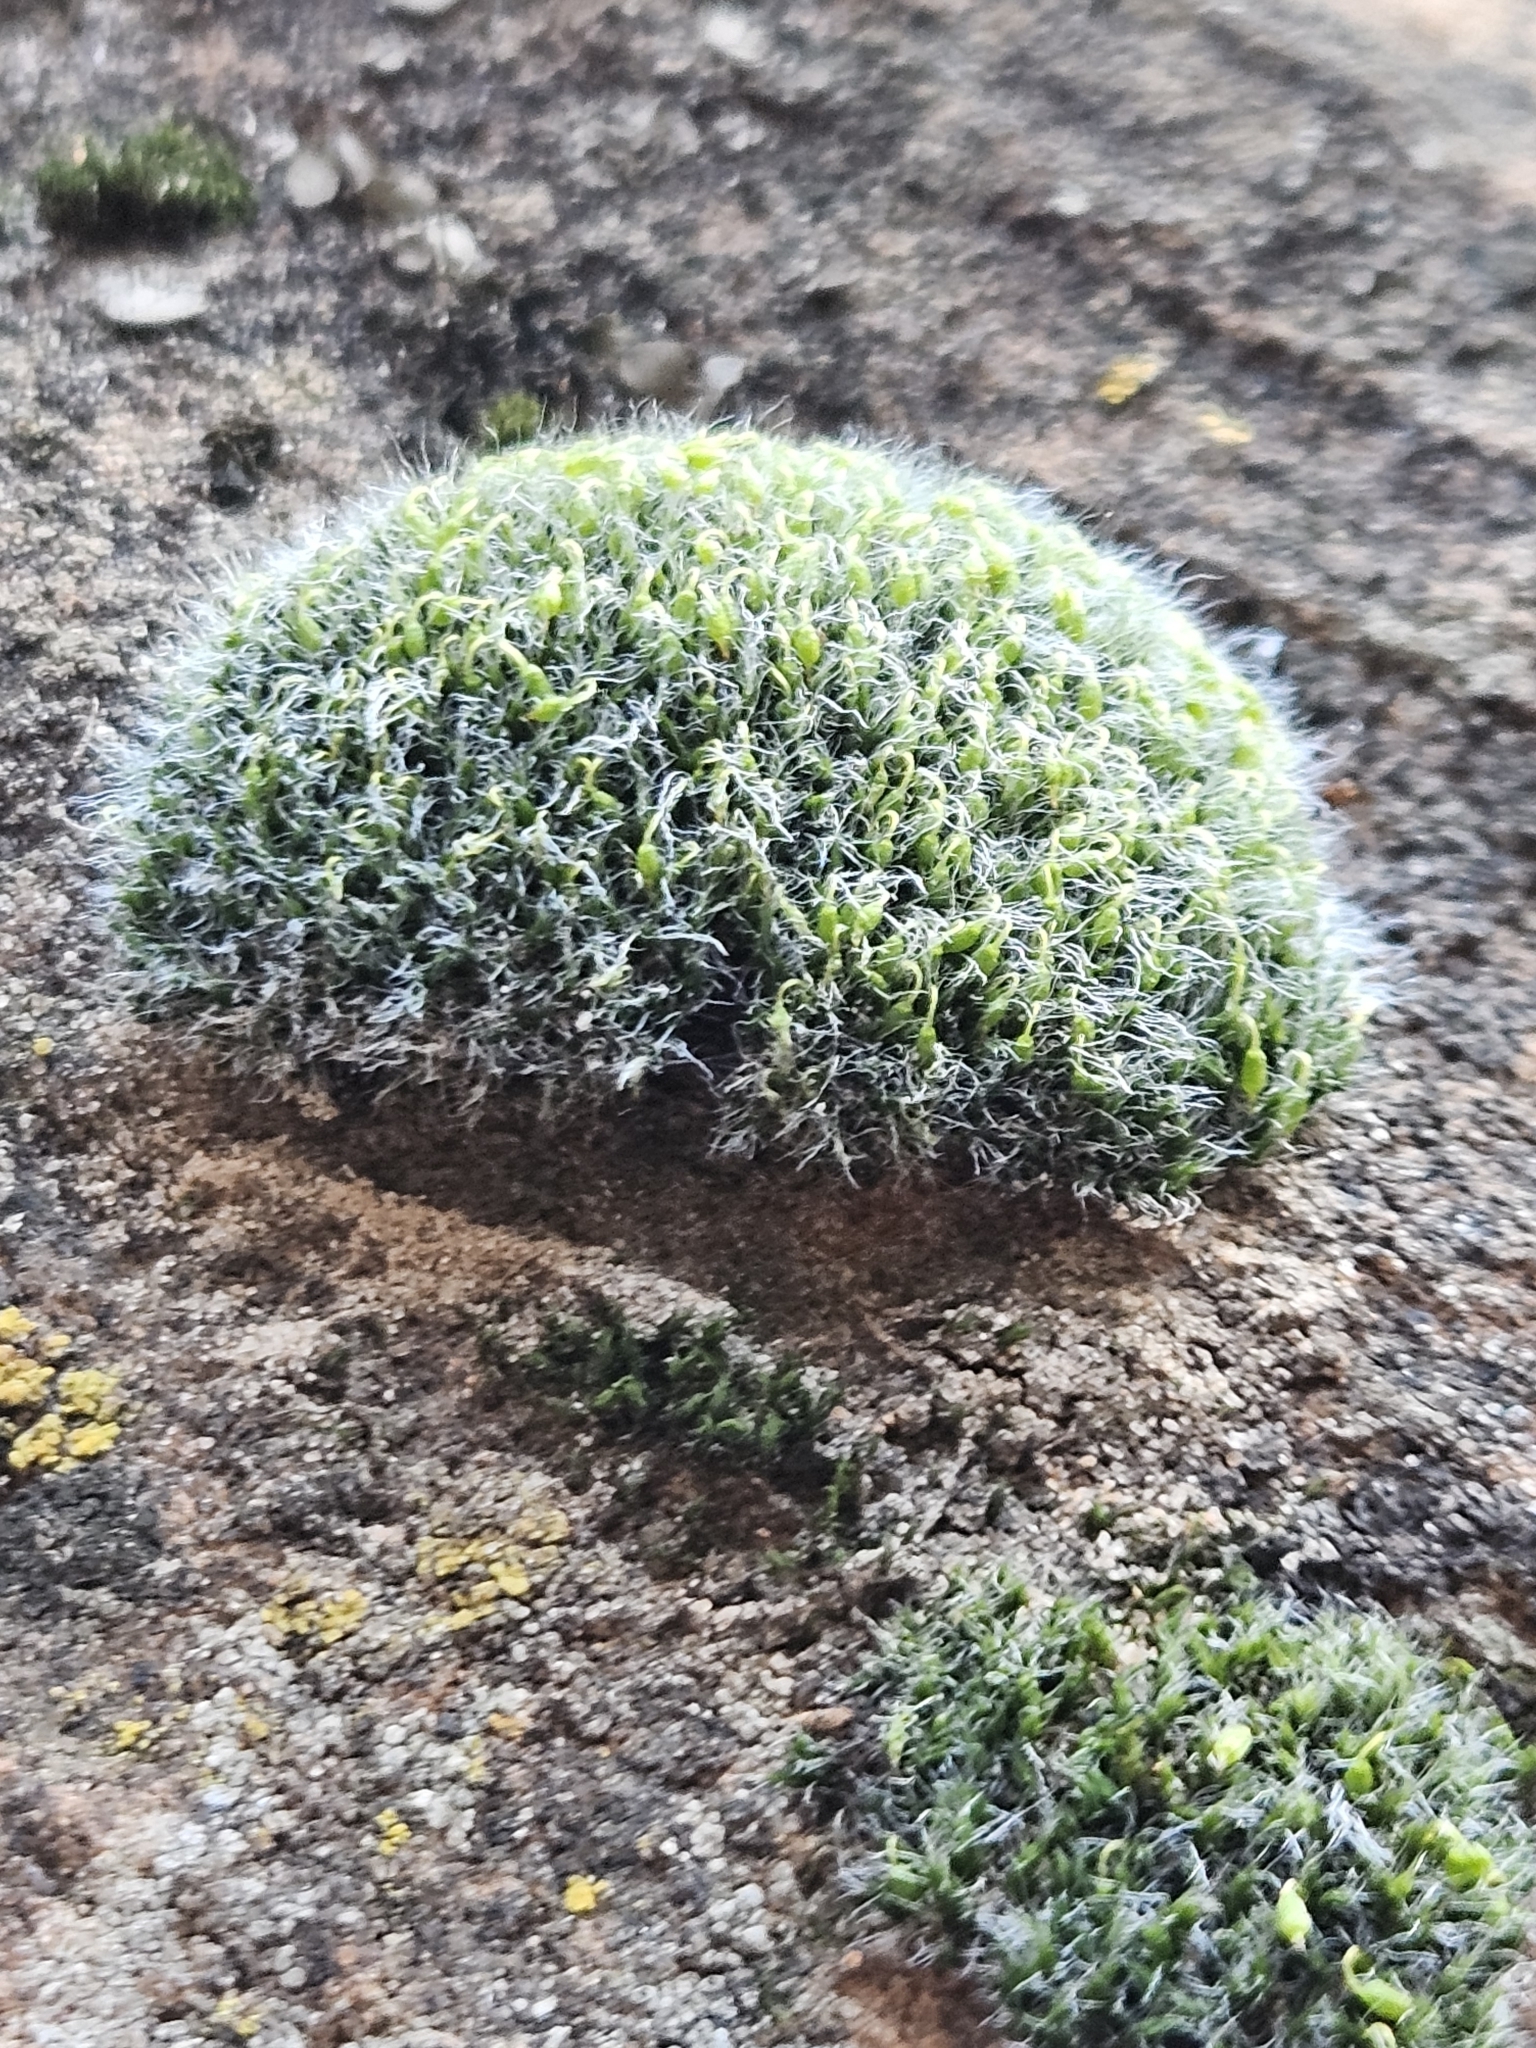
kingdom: Plantae
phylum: Bryophyta
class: Bryopsida
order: Grimmiales
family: Grimmiaceae
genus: Grimmia
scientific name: Grimmia pulvinata
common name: Grey-cushioned grimmia
